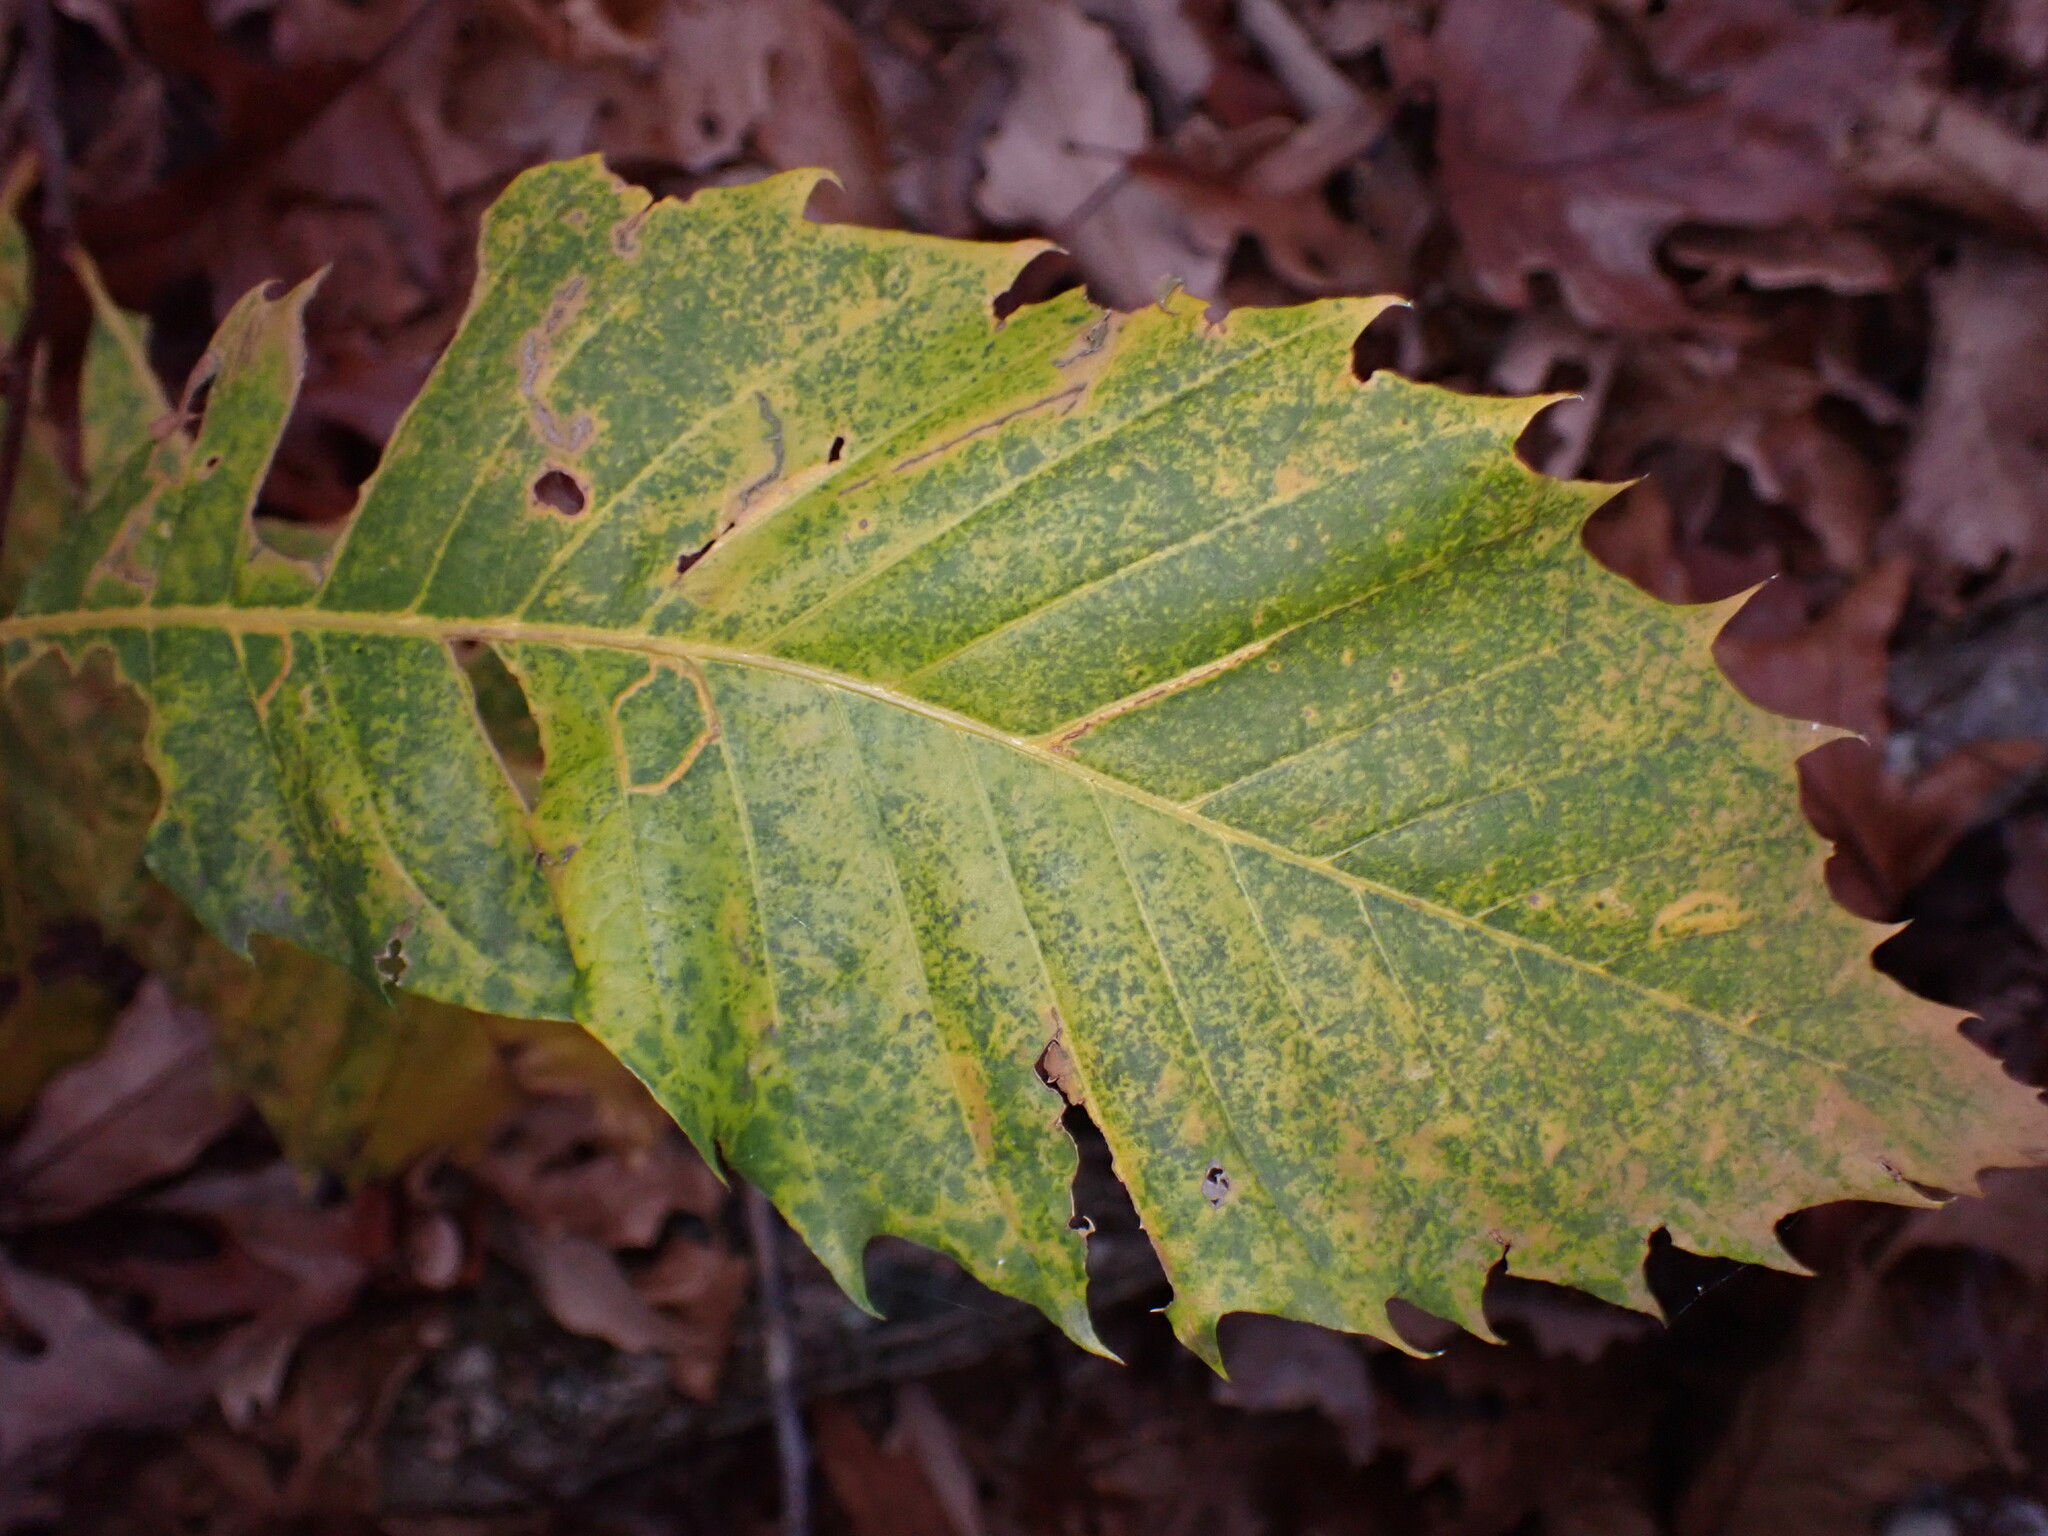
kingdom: Animalia
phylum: Arthropoda
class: Insecta
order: Lepidoptera
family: Gracillariidae
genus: Neurobathra
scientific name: Neurobathra strigifinitella
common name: Finite-channeled leafminer moth
